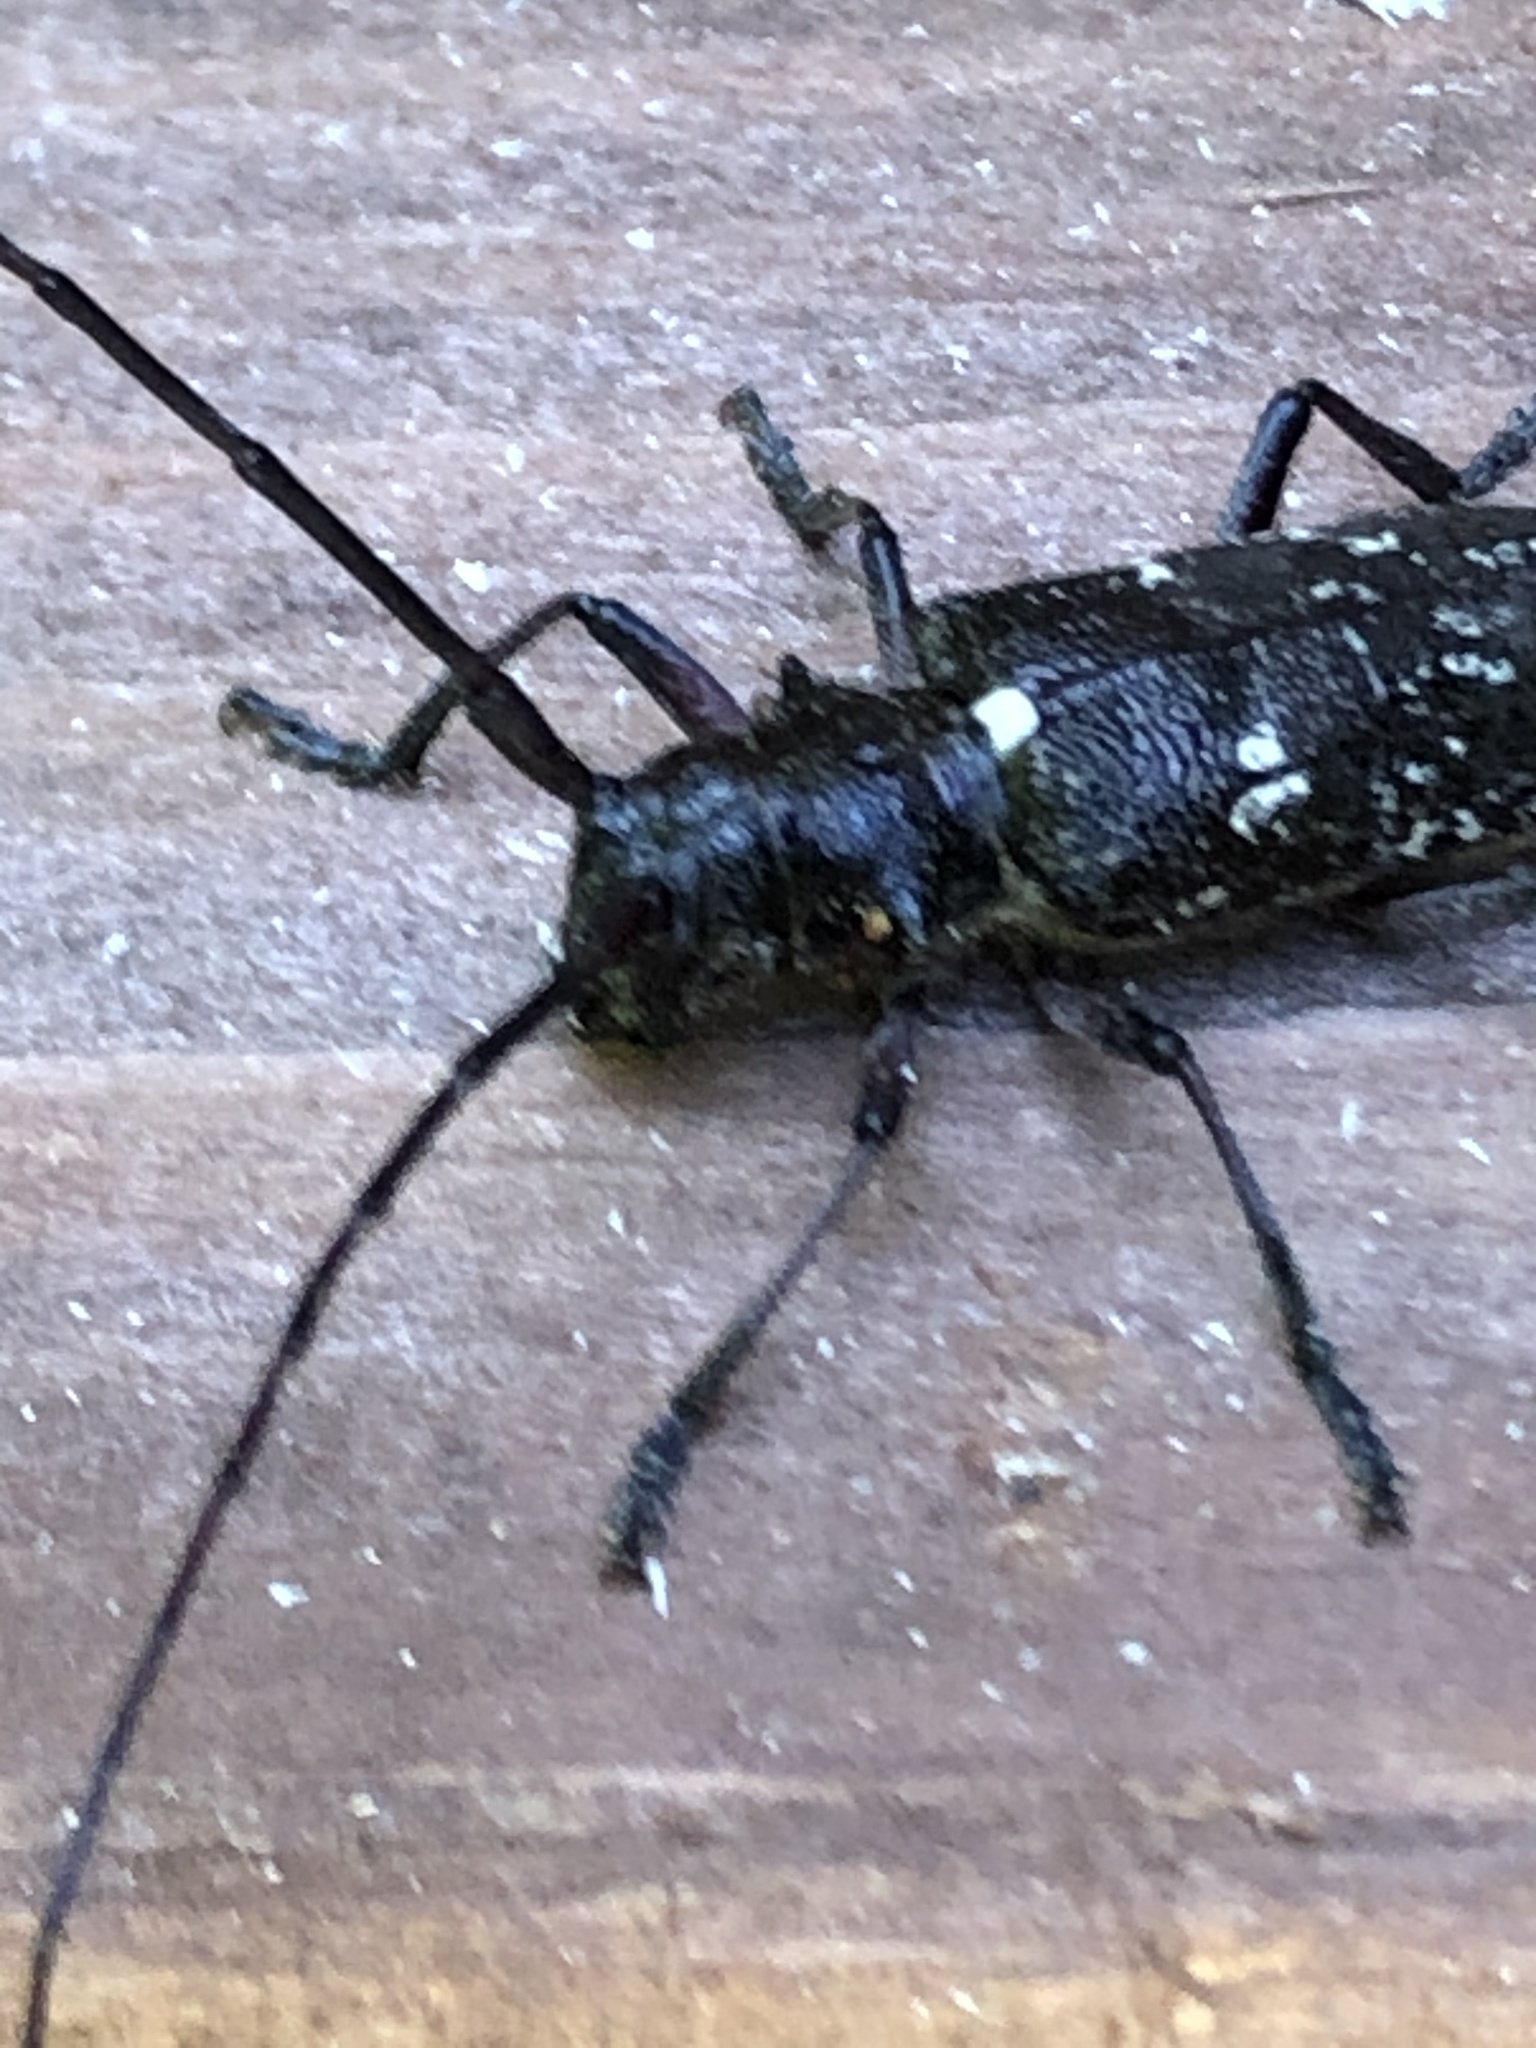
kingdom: Animalia
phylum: Arthropoda
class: Insecta
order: Coleoptera
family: Cerambycidae
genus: Monochamus
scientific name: Monochamus scutellatus
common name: White-spotted sawyer beetle
